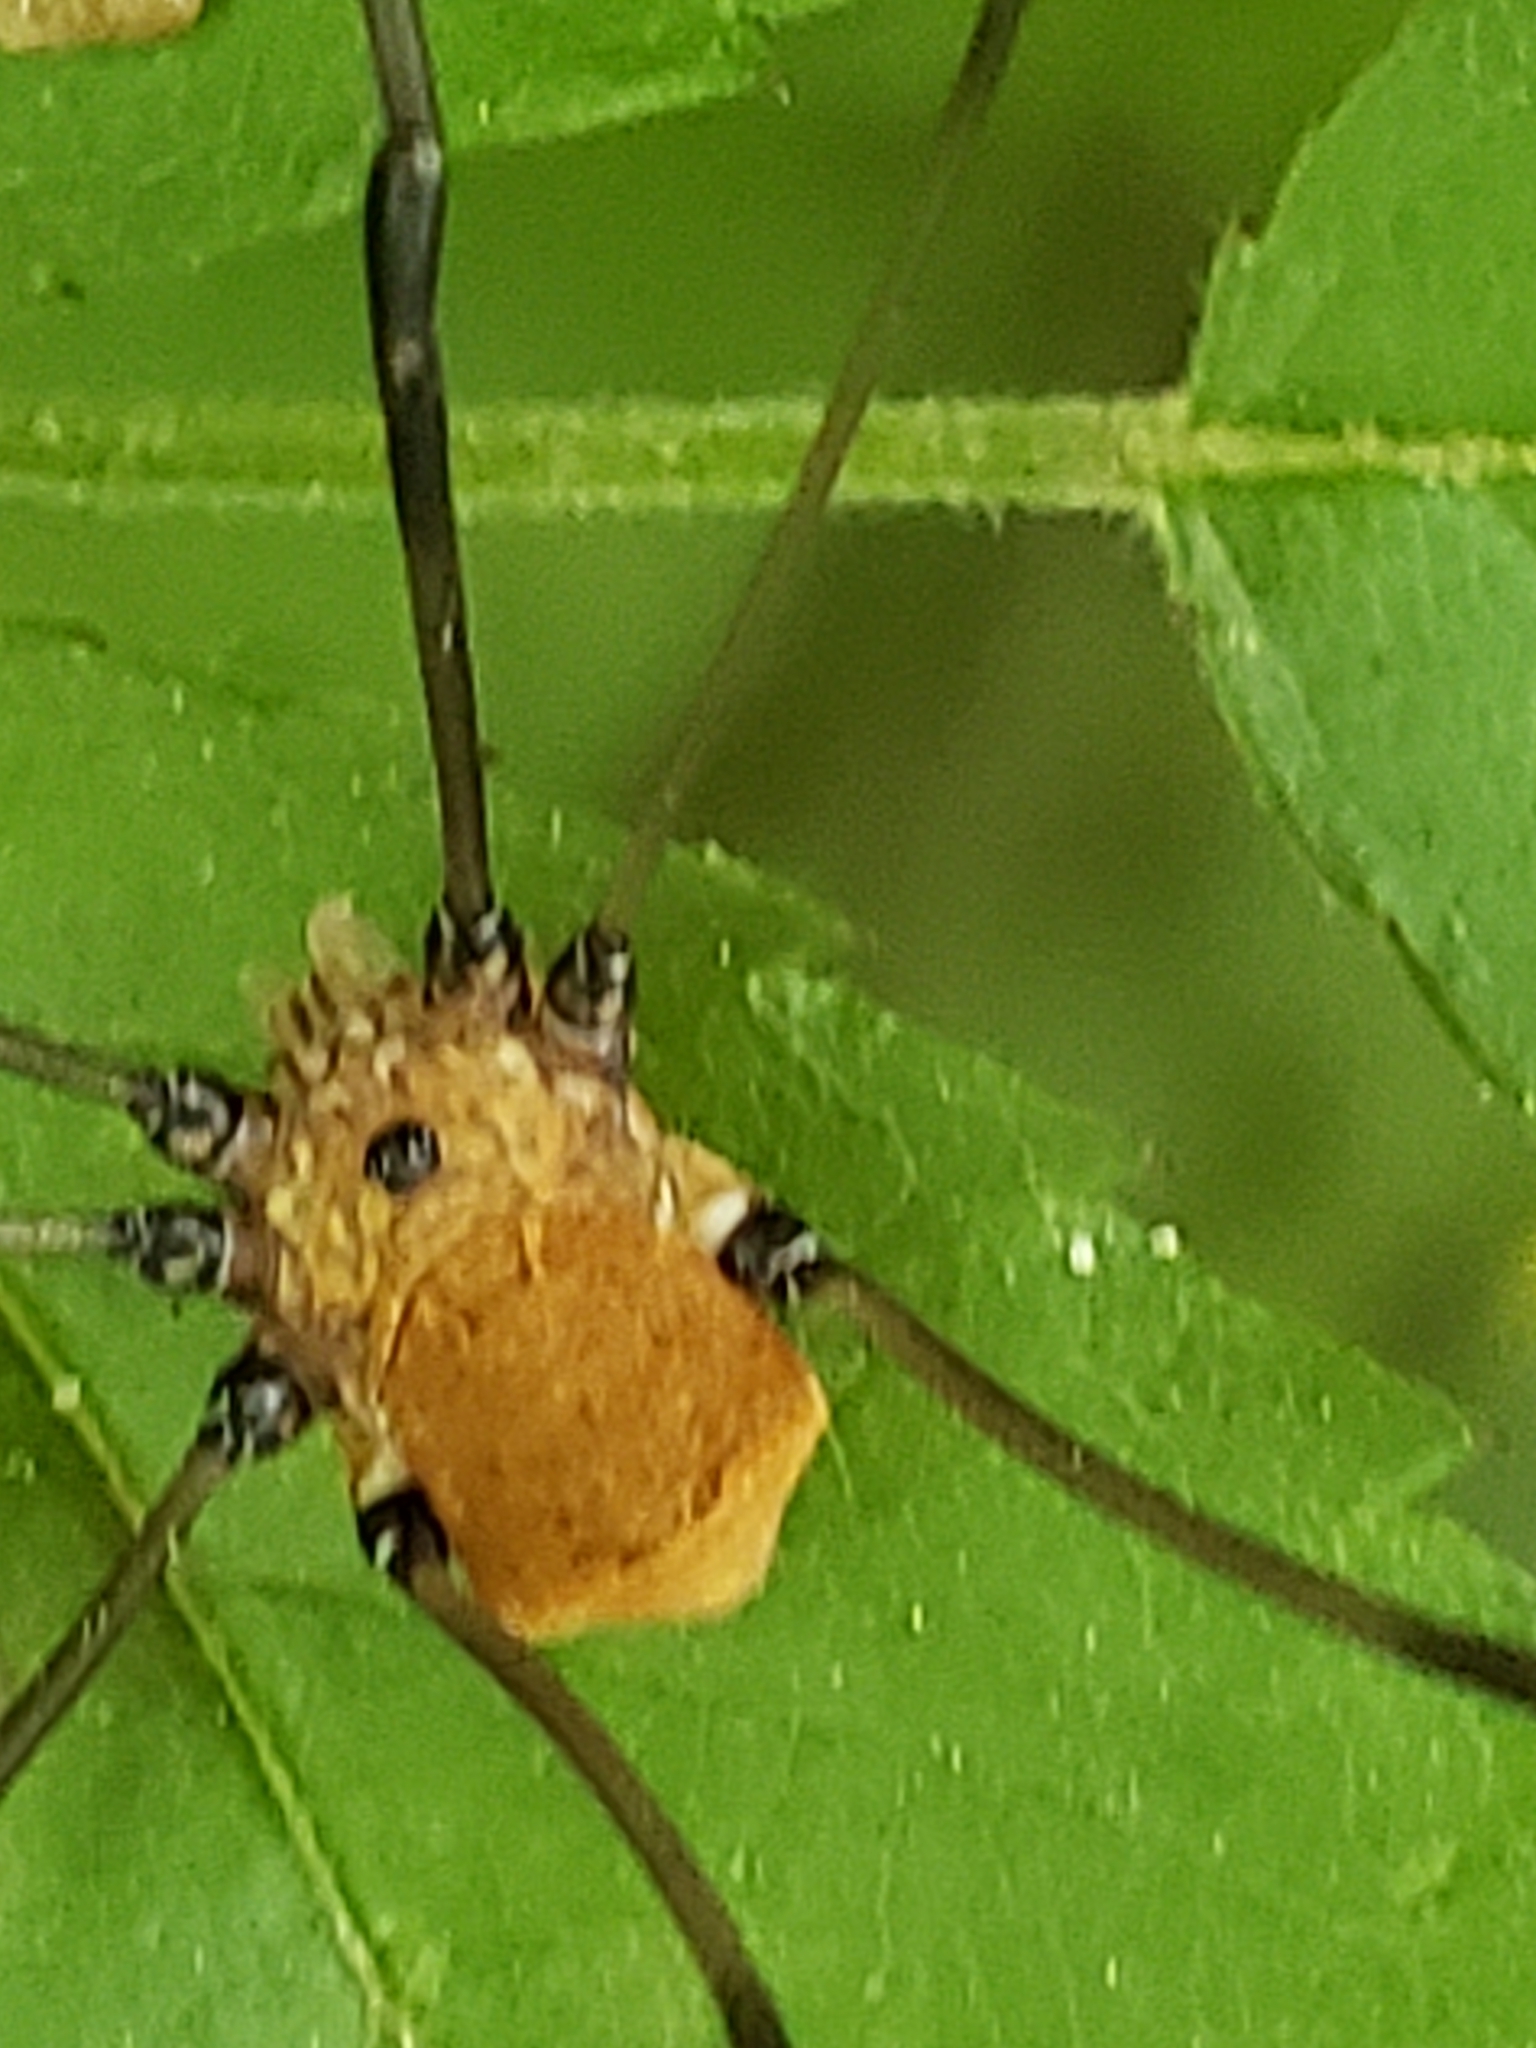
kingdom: Animalia
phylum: Arthropoda
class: Arachnida
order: Opiliones
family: Sclerosomatidae
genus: Leiobunum
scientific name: Leiobunum verrucosum
